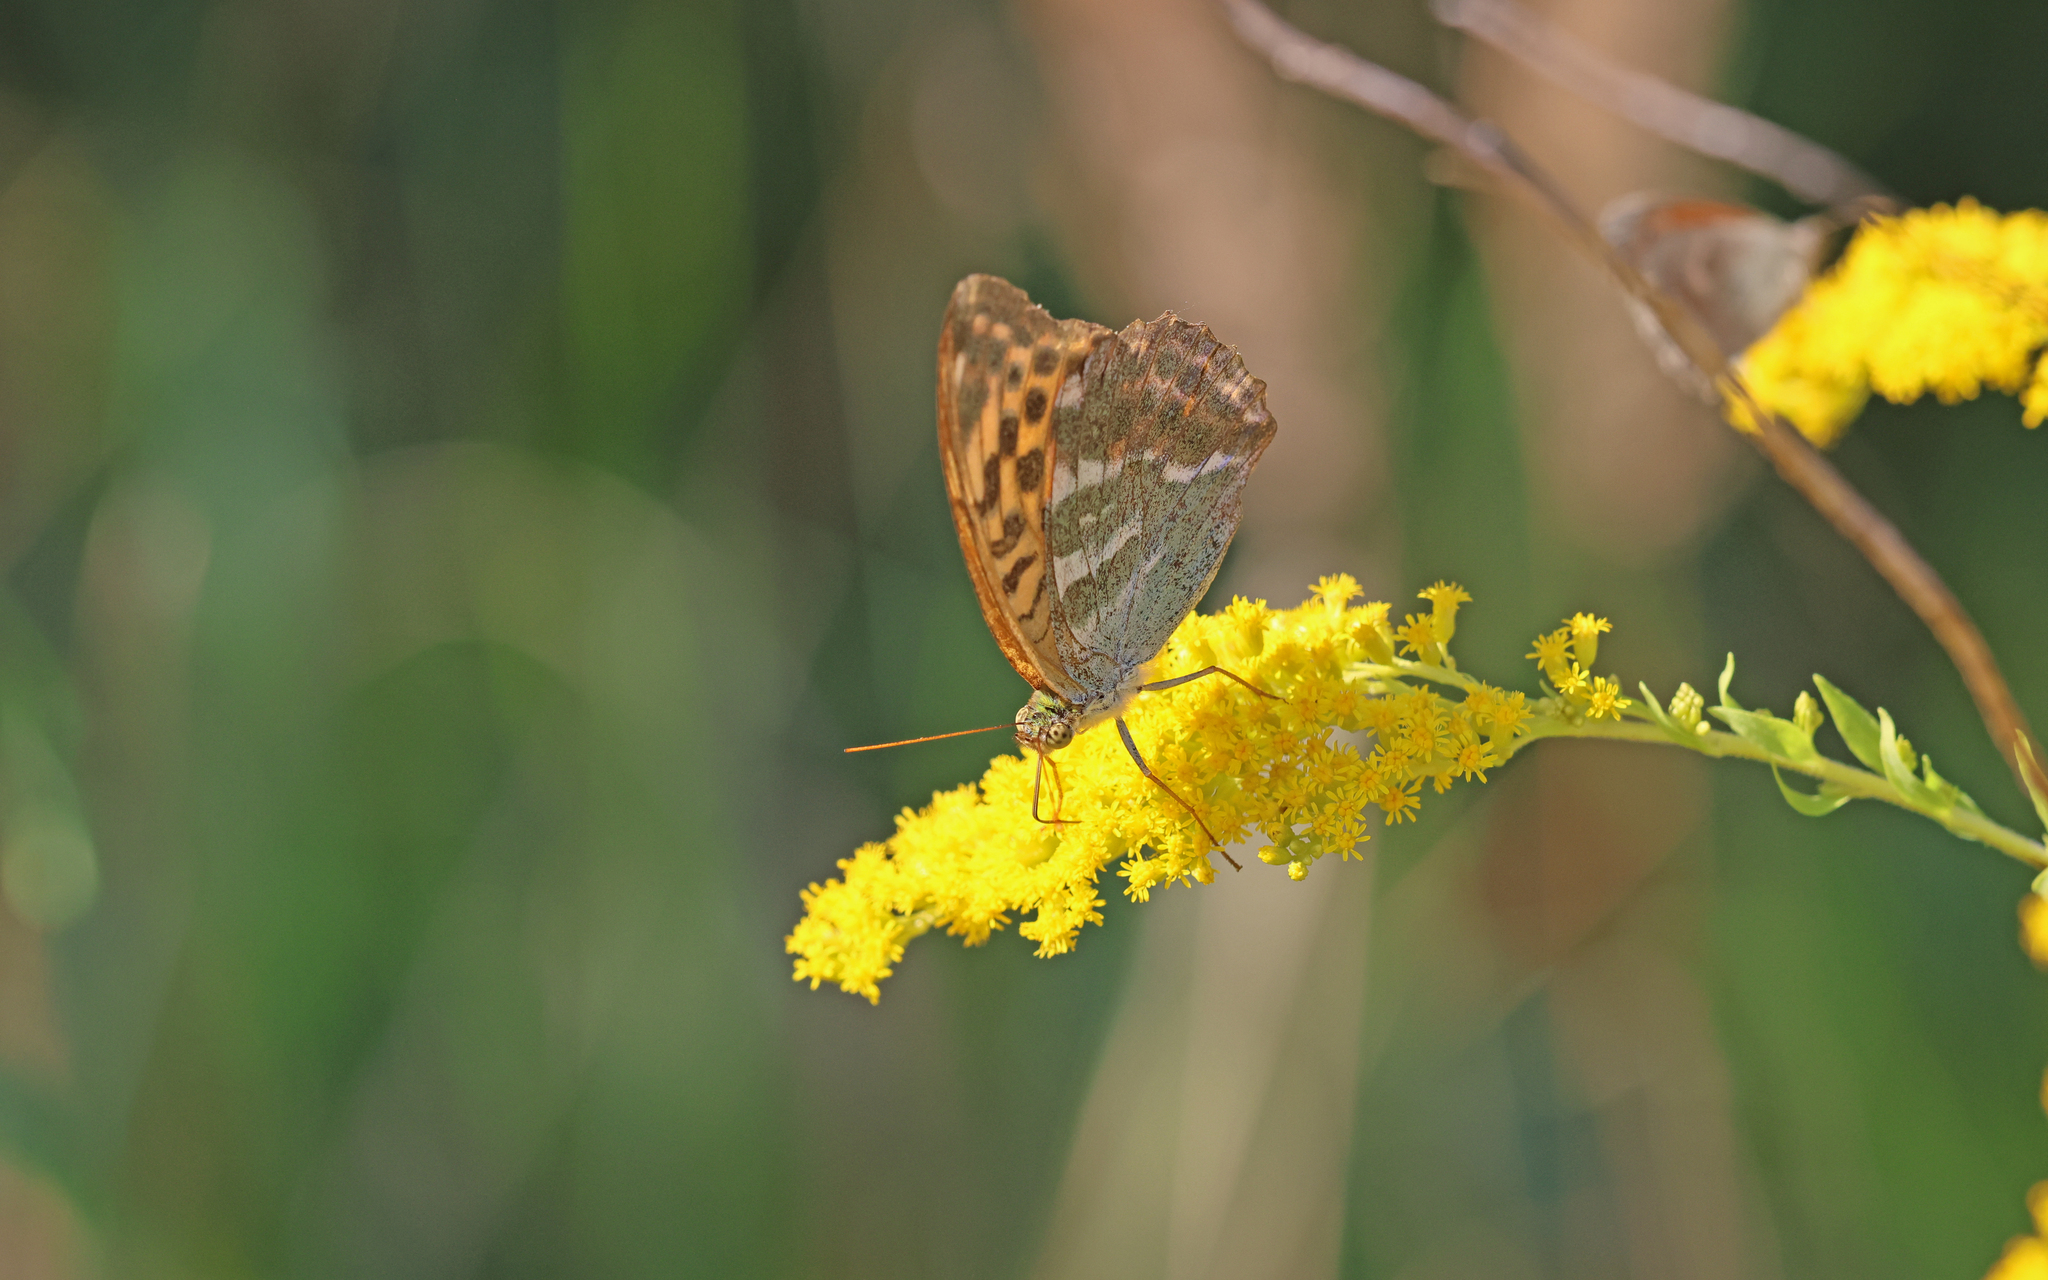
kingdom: Animalia
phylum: Arthropoda
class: Insecta
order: Lepidoptera
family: Nymphalidae
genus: Argynnis
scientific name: Argynnis paphia
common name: Silver-washed fritillary
